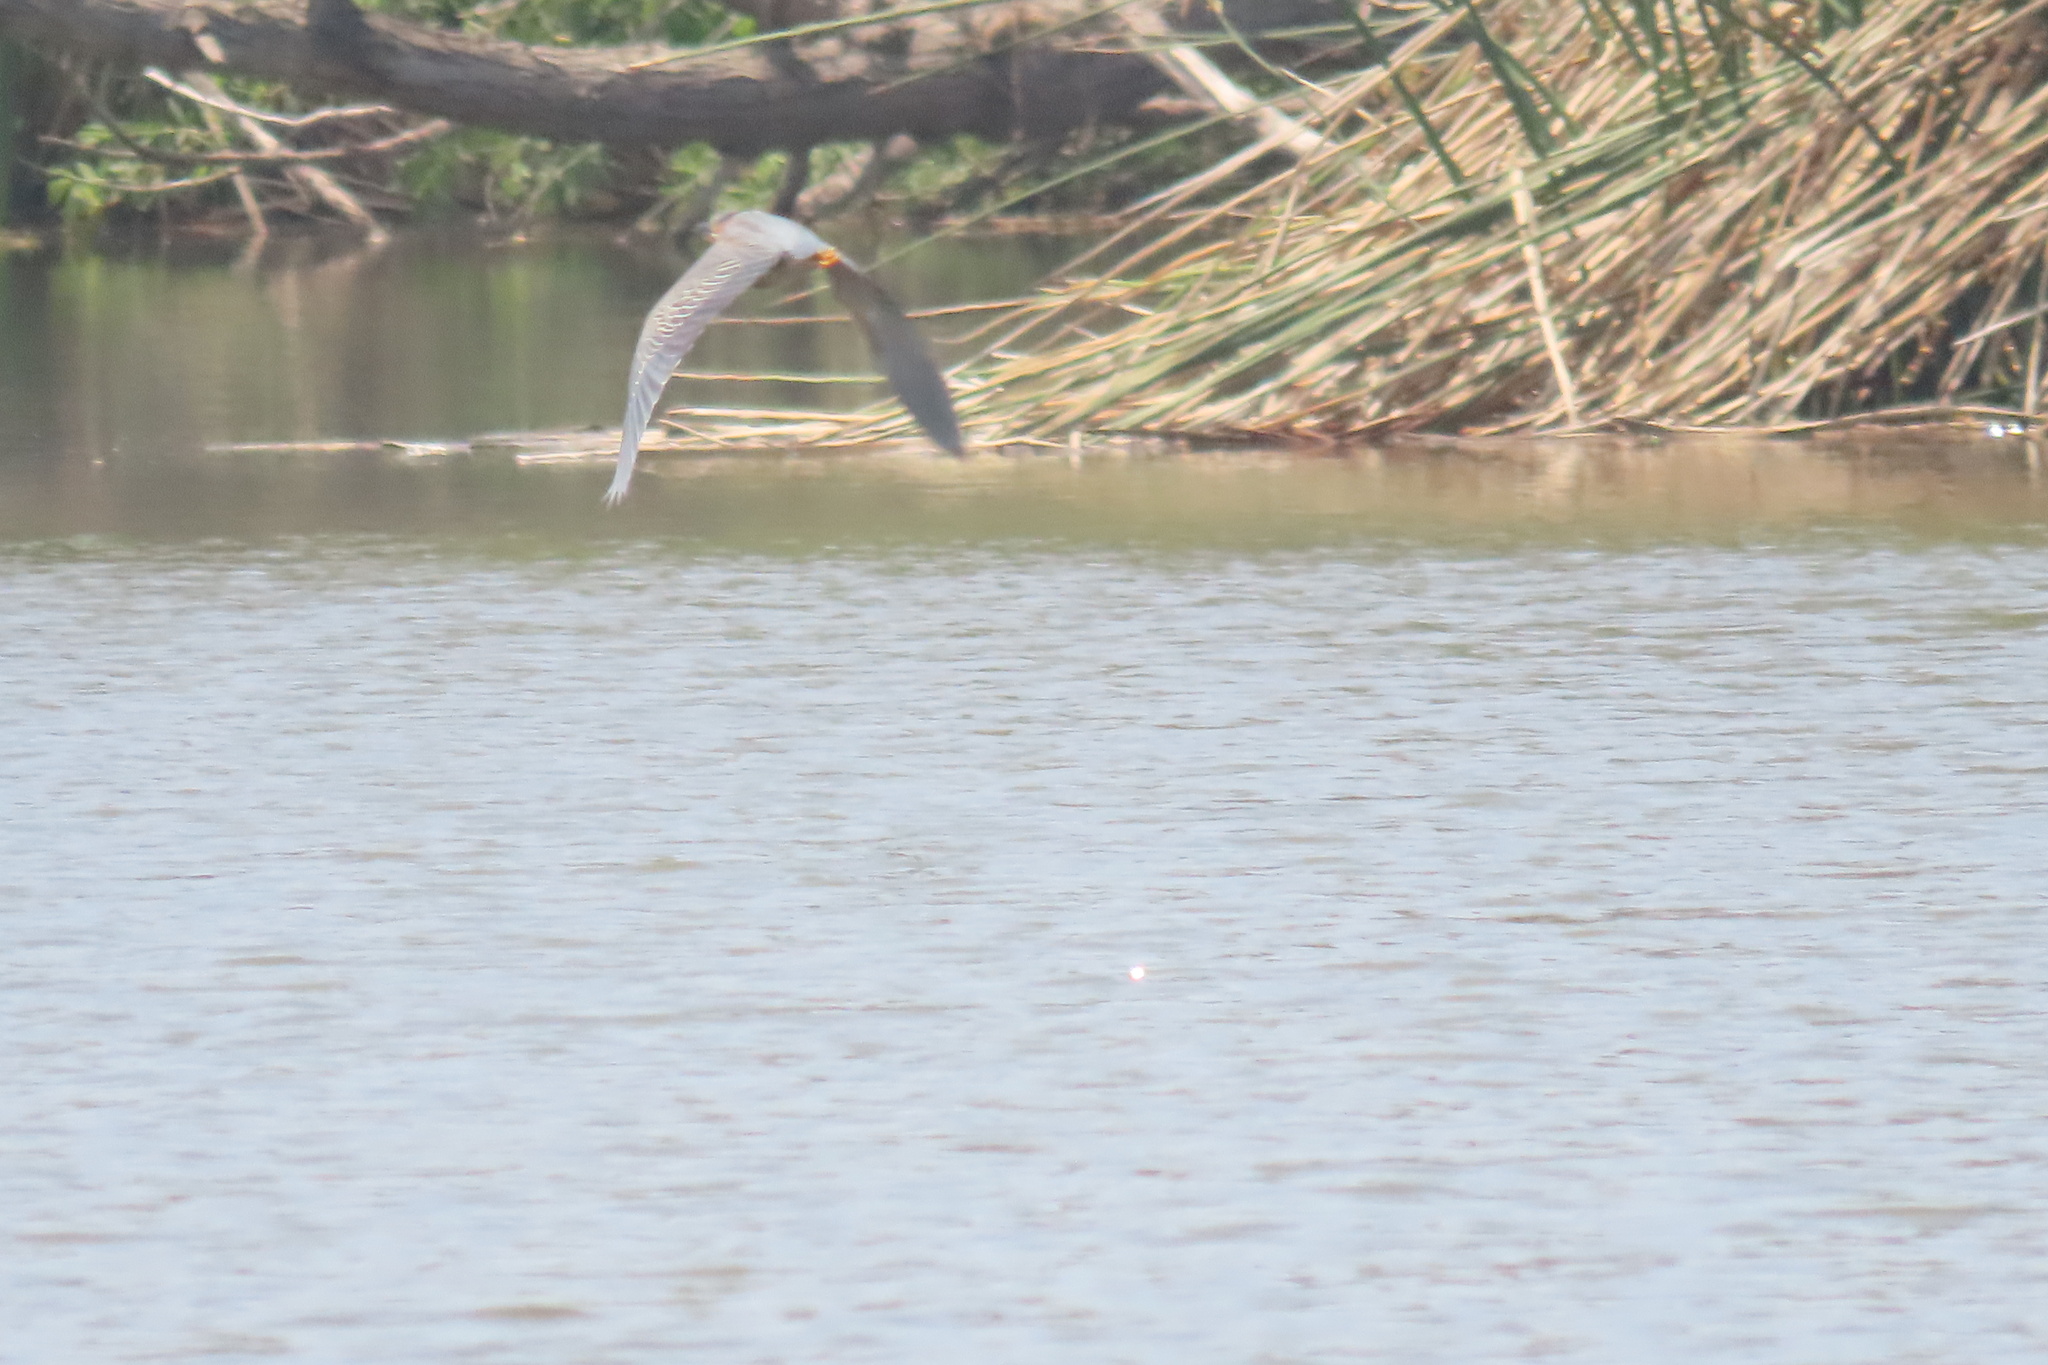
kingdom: Animalia
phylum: Chordata
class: Aves
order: Pelecaniformes
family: Ardeidae
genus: Butorides
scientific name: Butorides virescens
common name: Green heron
